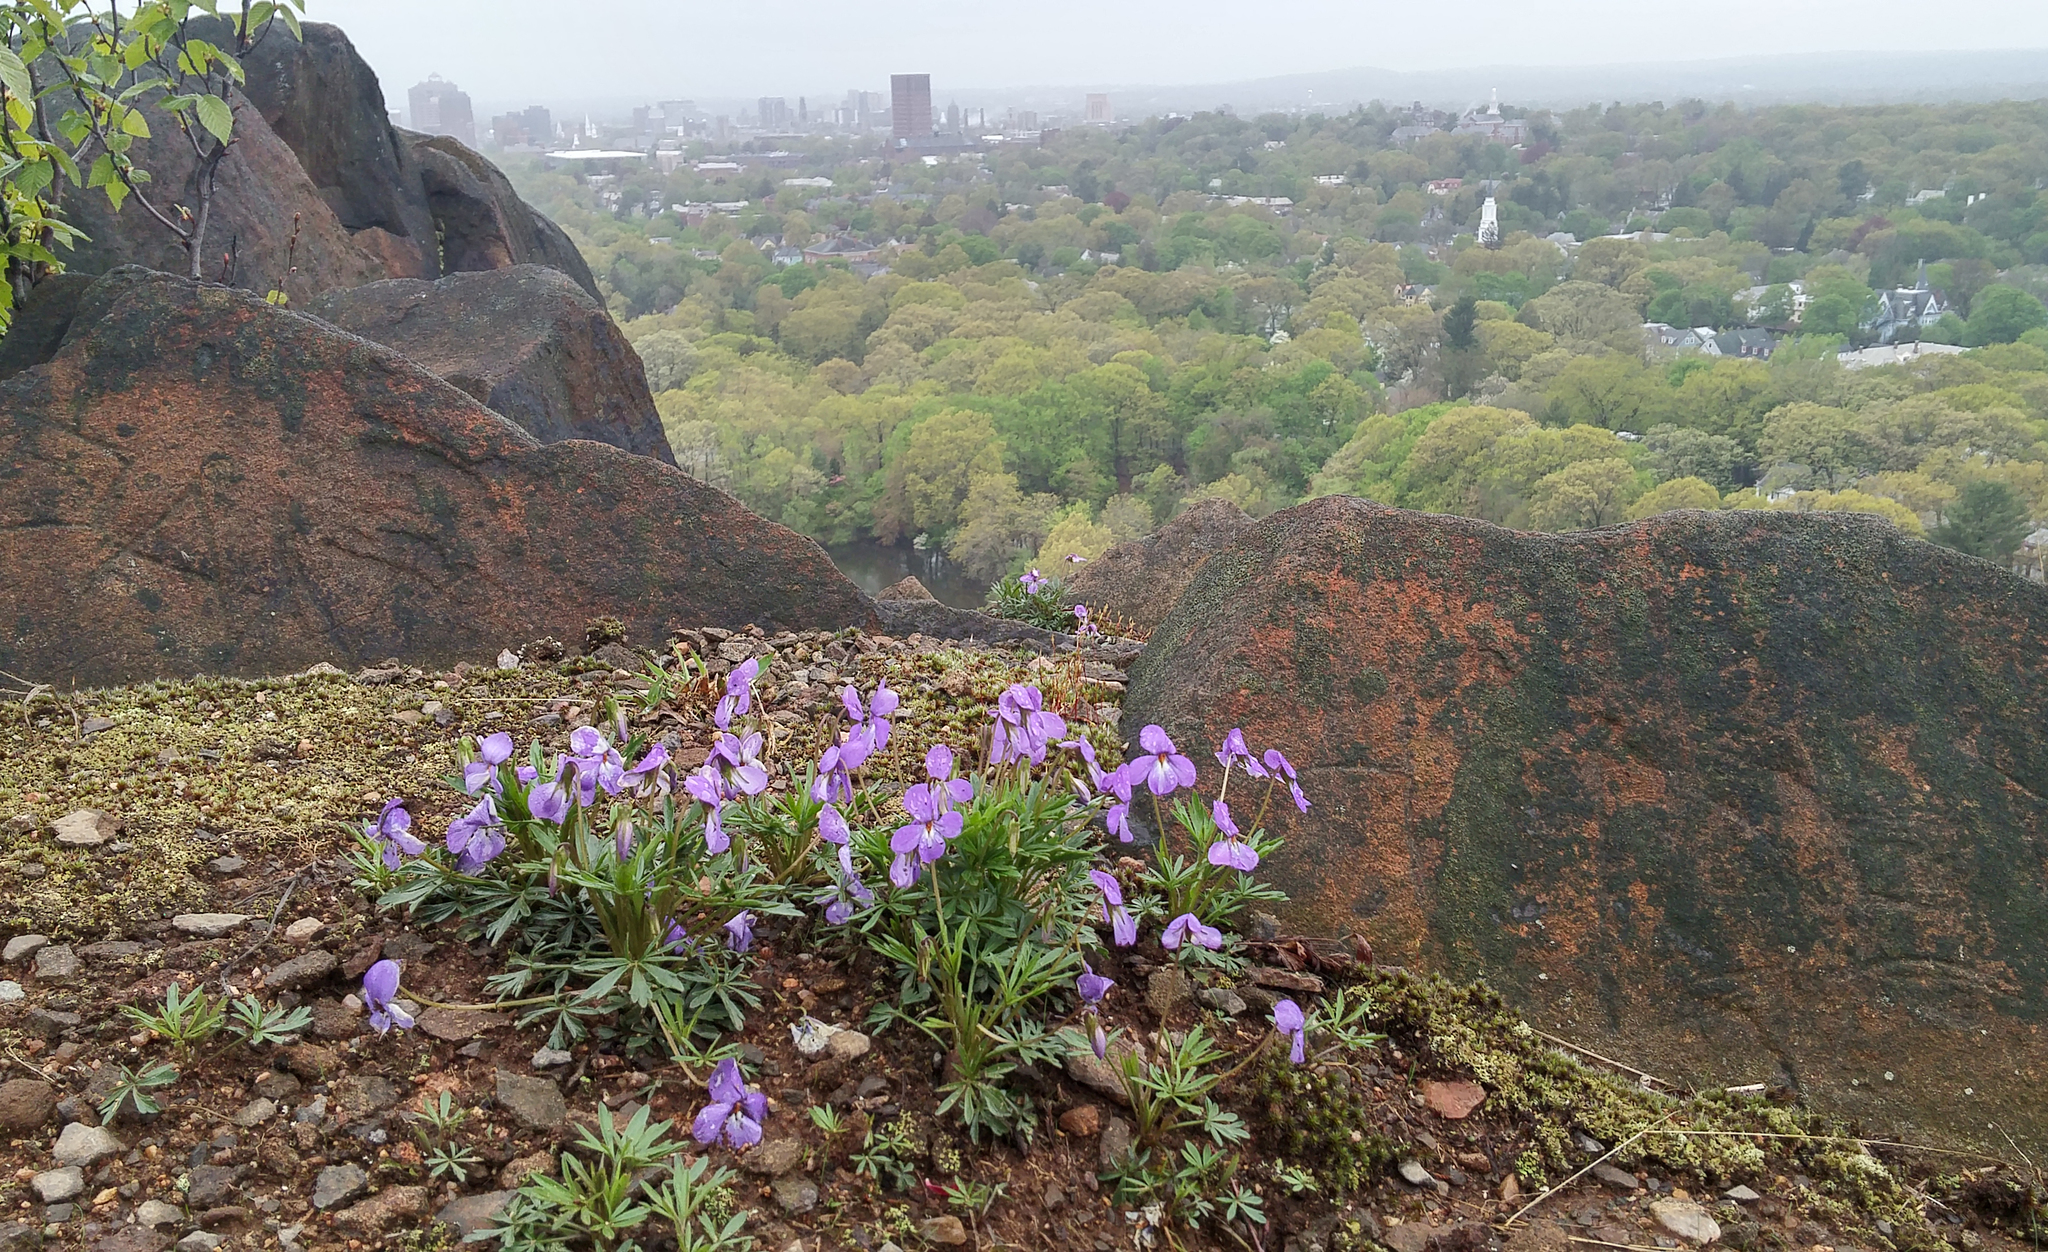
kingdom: Plantae
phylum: Tracheophyta
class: Magnoliopsida
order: Malpighiales
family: Violaceae
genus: Viola
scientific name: Viola pedata
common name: Pansy violet
